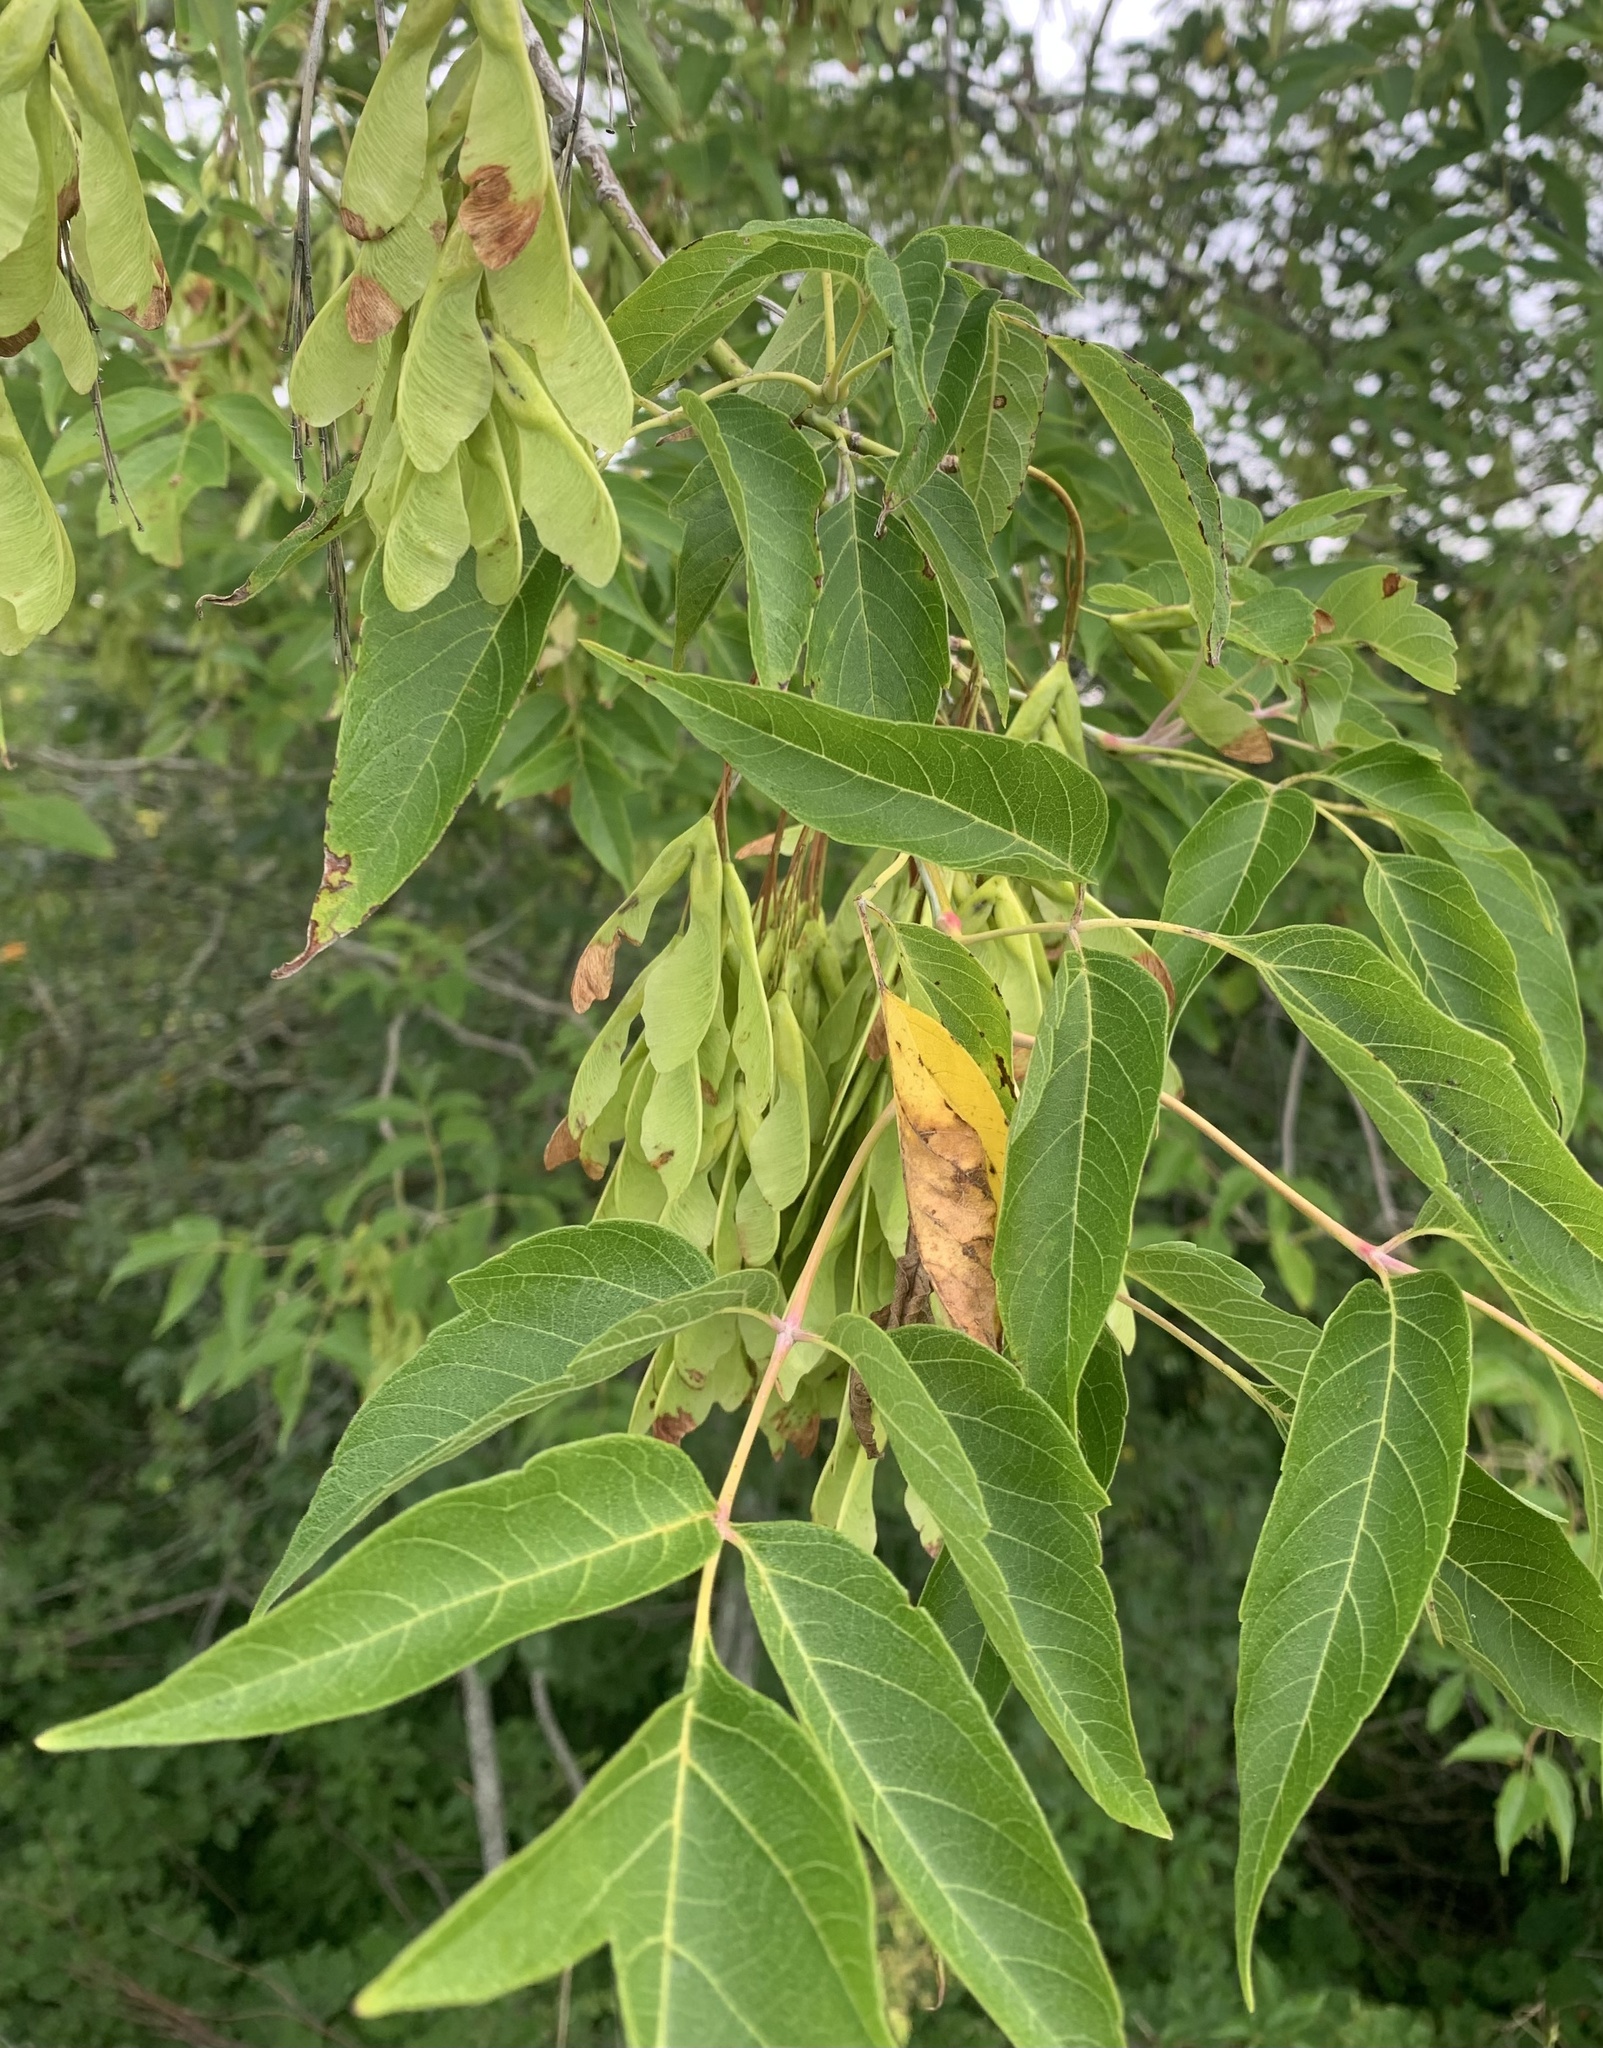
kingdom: Plantae
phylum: Tracheophyta
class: Magnoliopsida
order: Sapindales
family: Sapindaceae
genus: Acer
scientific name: Acer negundo
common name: Ashleaf maple
